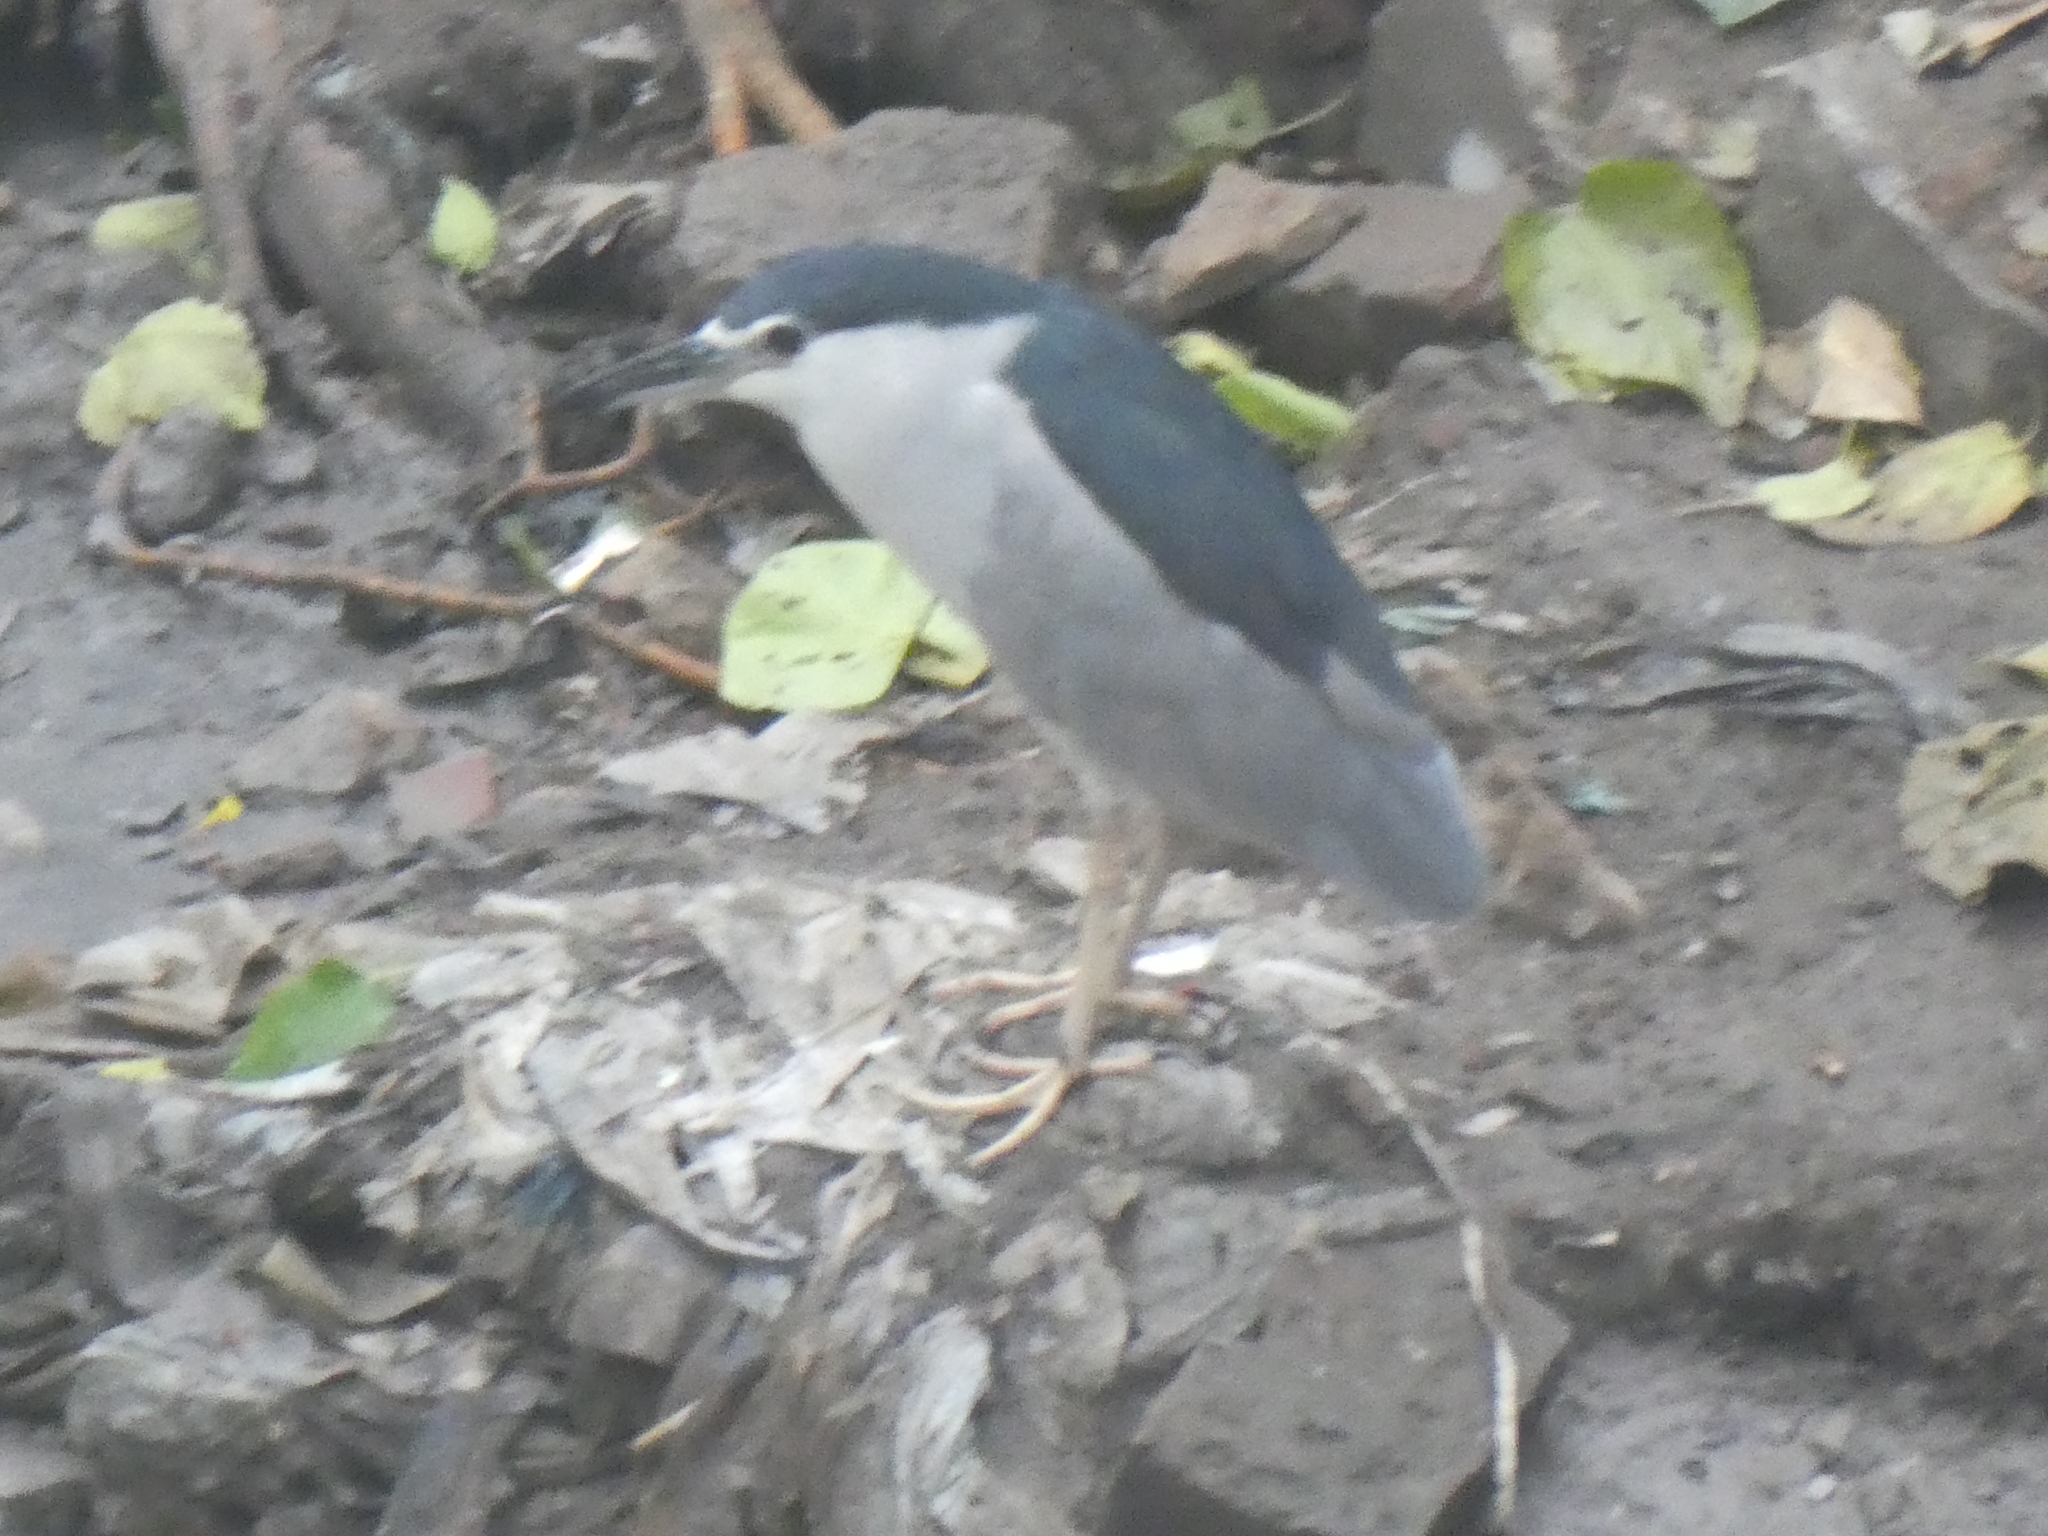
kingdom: Animalia
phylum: Chordata
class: Aves
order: Pelecaniformes
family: Ardeidae
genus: Nycticorax
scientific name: Nycticorax nycticorax
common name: Black-crowned night heron
